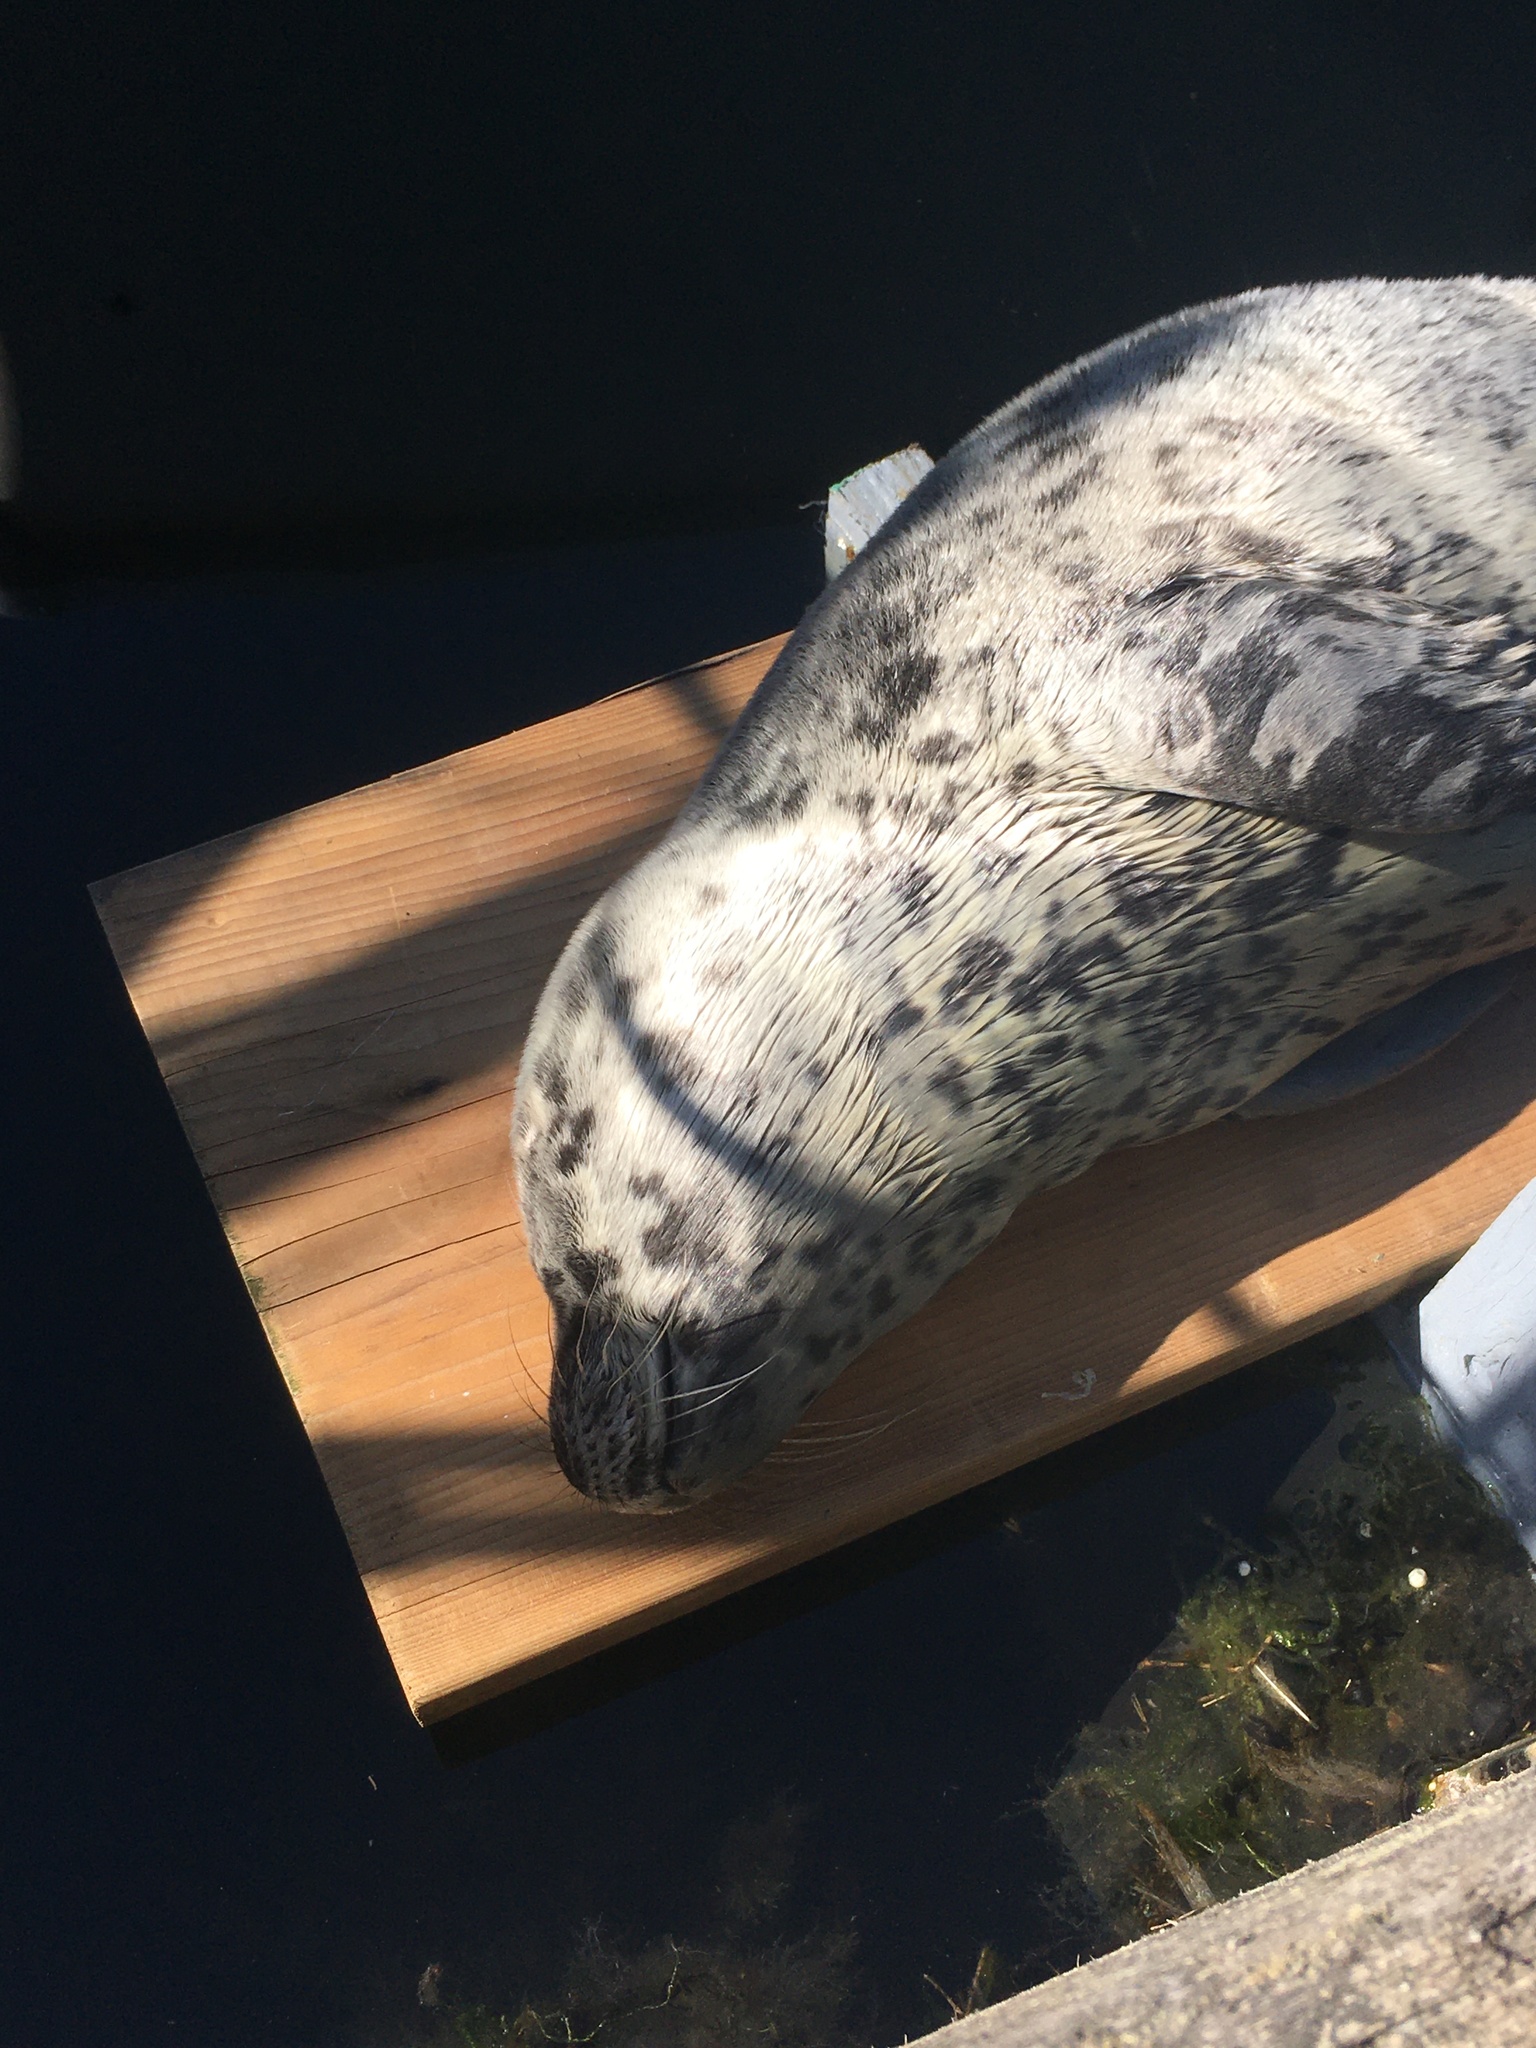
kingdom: Animalia
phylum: Chordata
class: Mammalia
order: Carnivora
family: Phocidae
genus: Phoca
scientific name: Phoca vitulina
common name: Harbor seal
